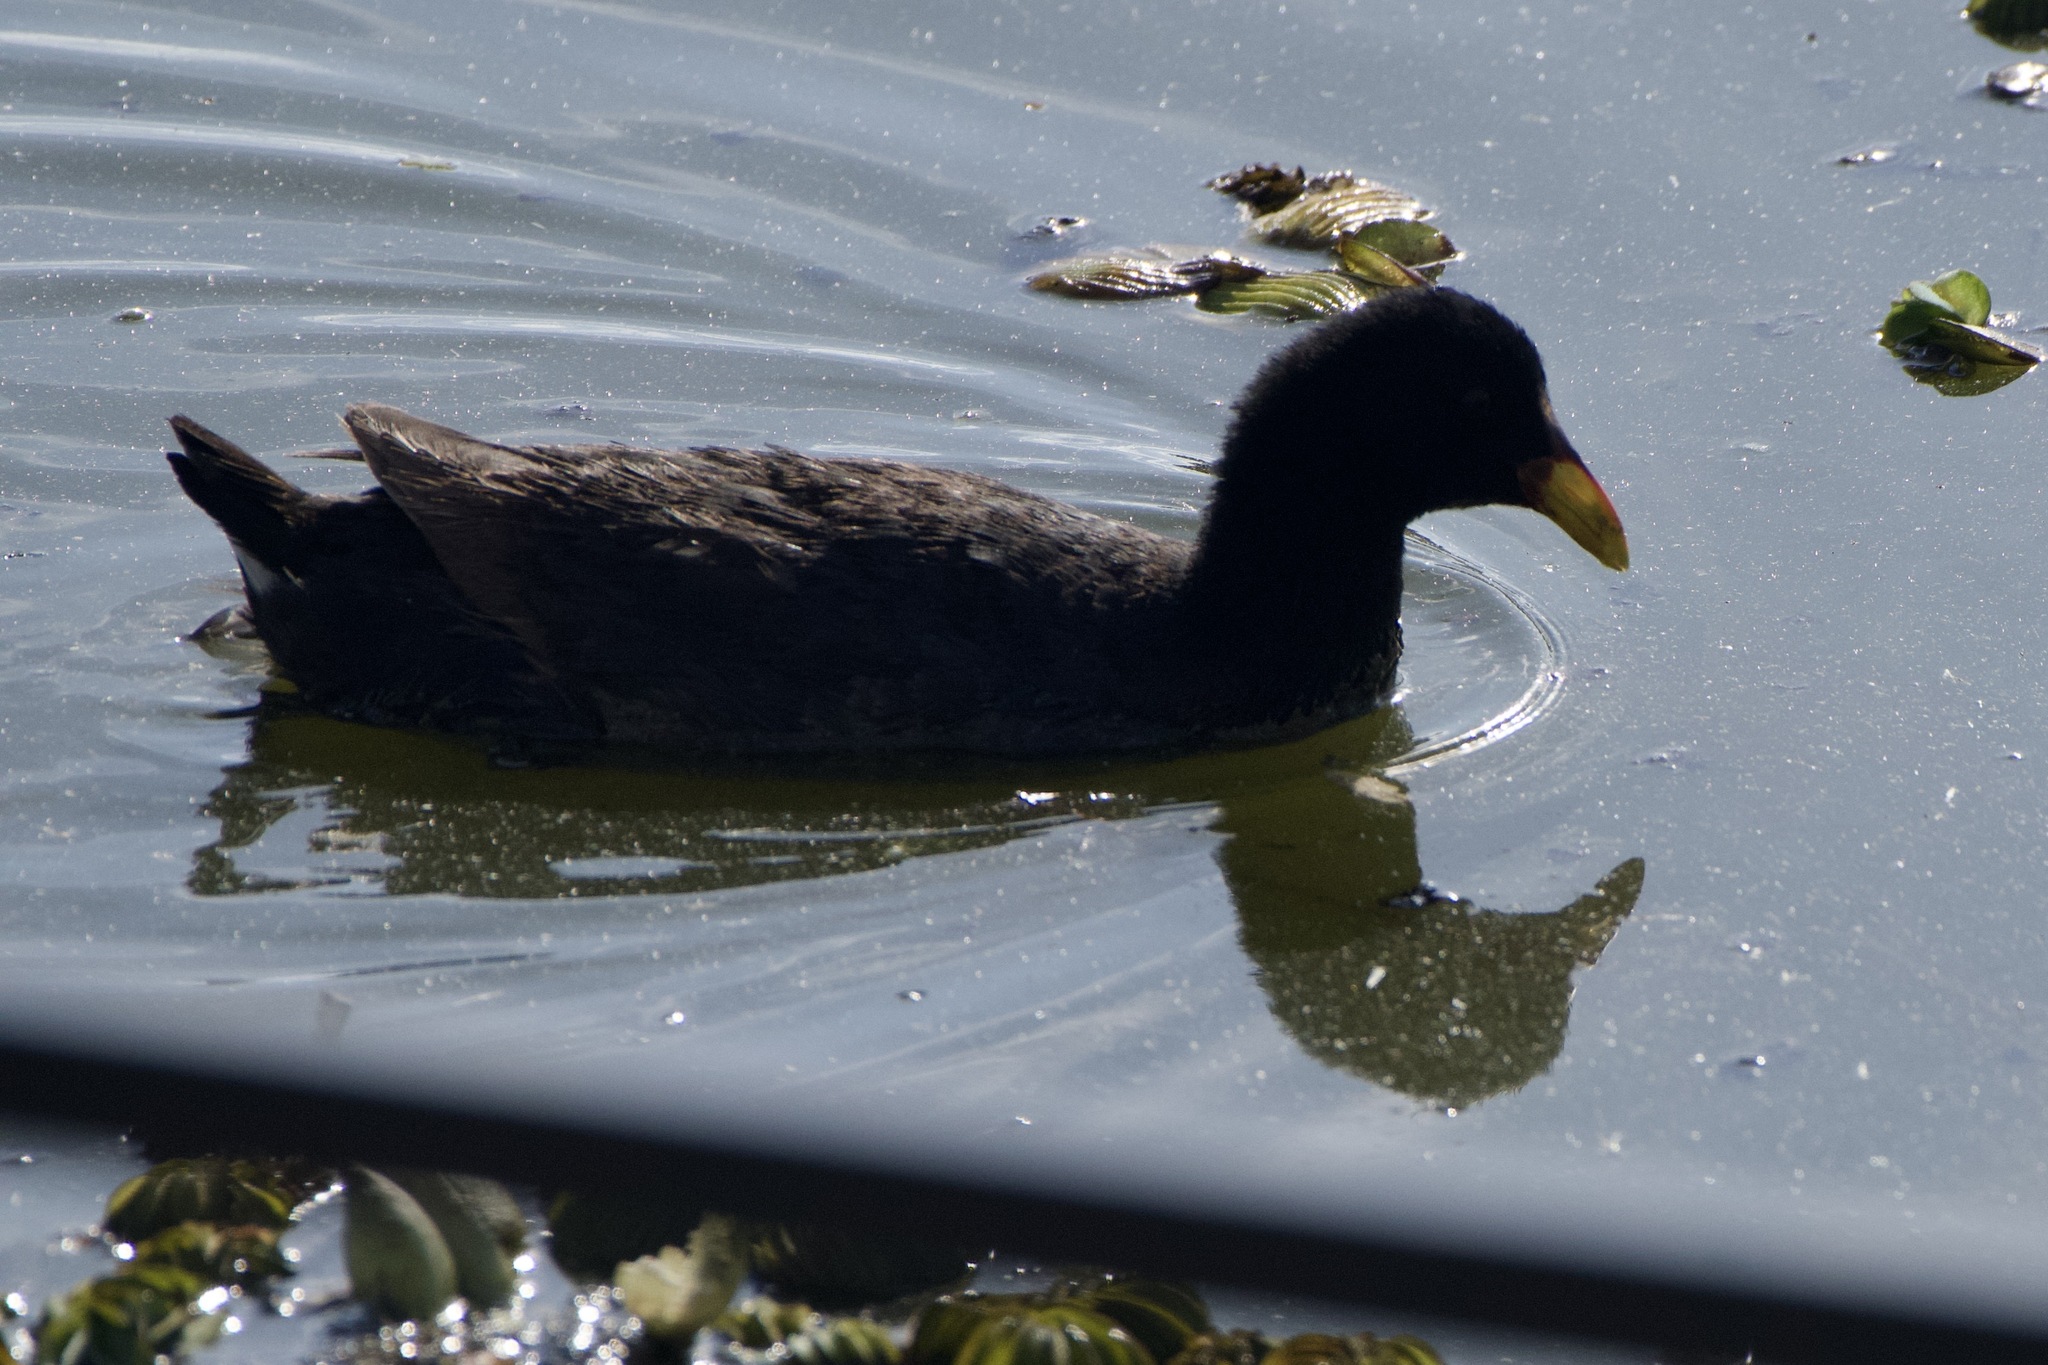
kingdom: Animalia
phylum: Chordata
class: Aves
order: Gruiformes
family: Rallidae
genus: Fulica
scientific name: Fulica rufifrons
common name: Red-fronted coot
